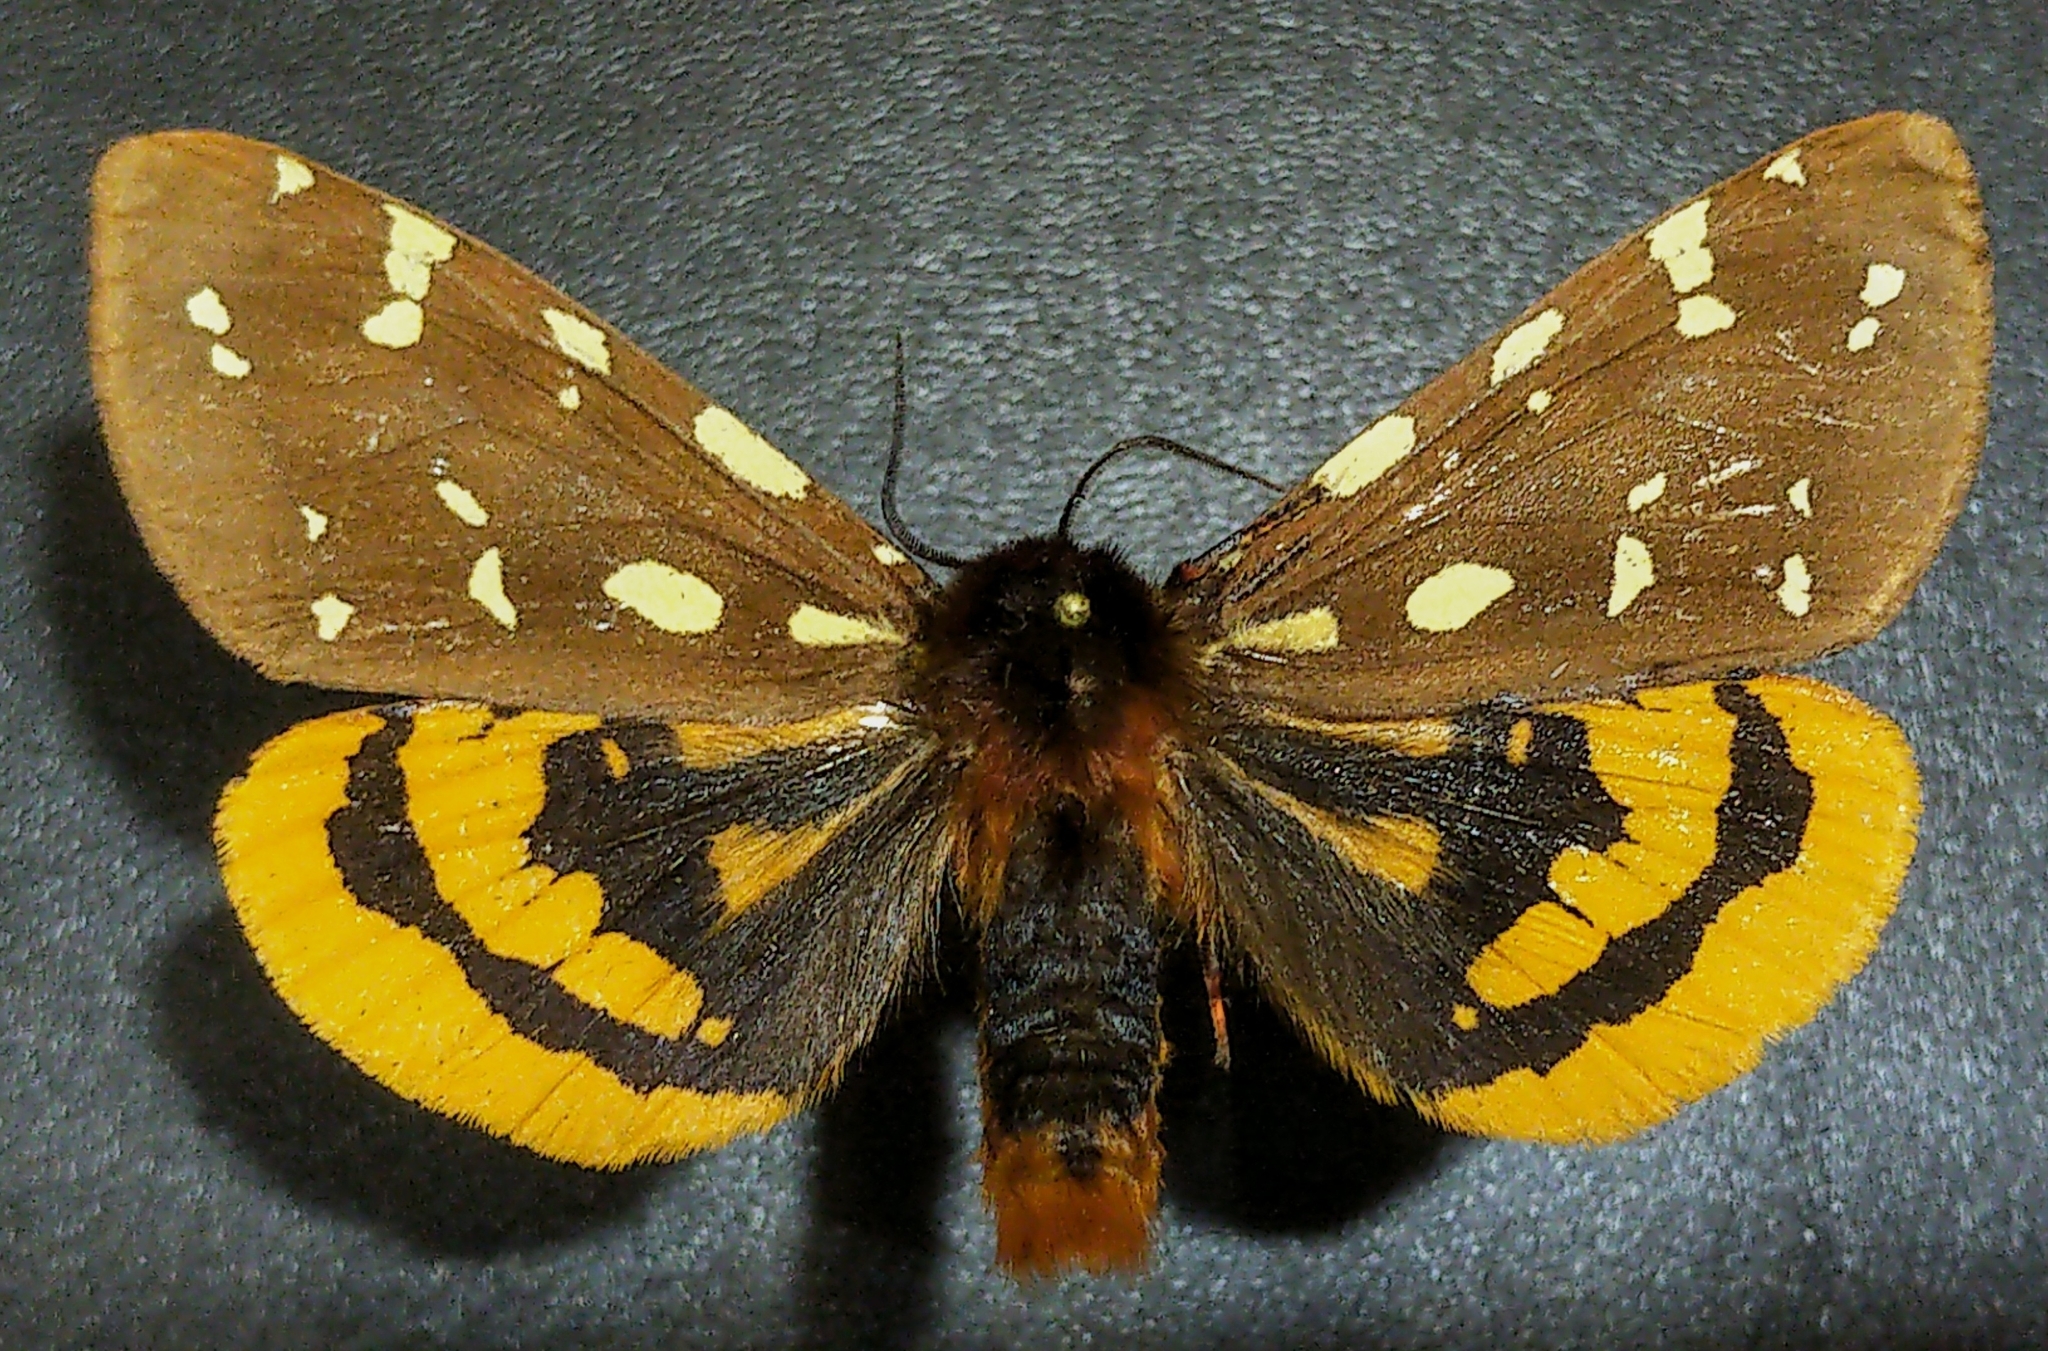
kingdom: Animalia
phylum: Arthropoda
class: Insecta
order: Lepidoptera
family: Erebidae
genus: Arctia
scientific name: Arctia parthenos
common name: St. lawrence tiger moth
